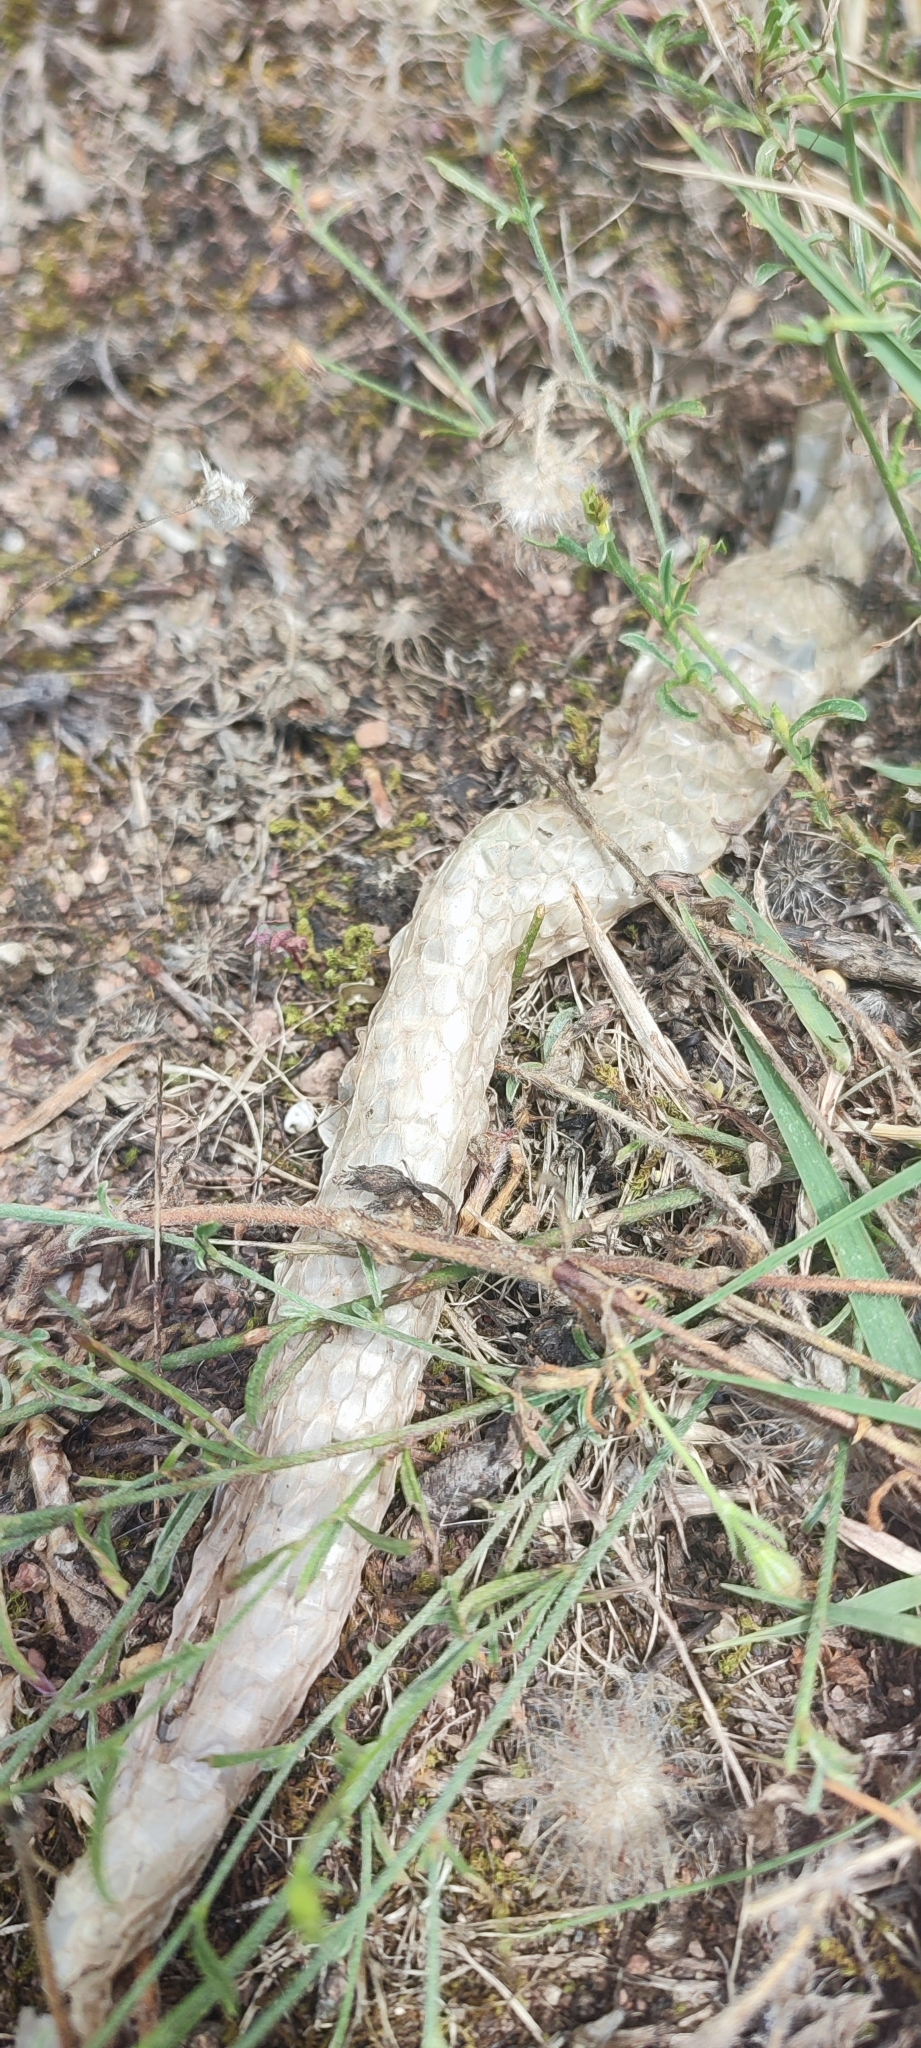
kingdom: Animalia
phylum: Chordata
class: Squamata
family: Psammophiidae
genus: Malpolon
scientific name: Malpolon monspessulanus
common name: Montpellier snake
